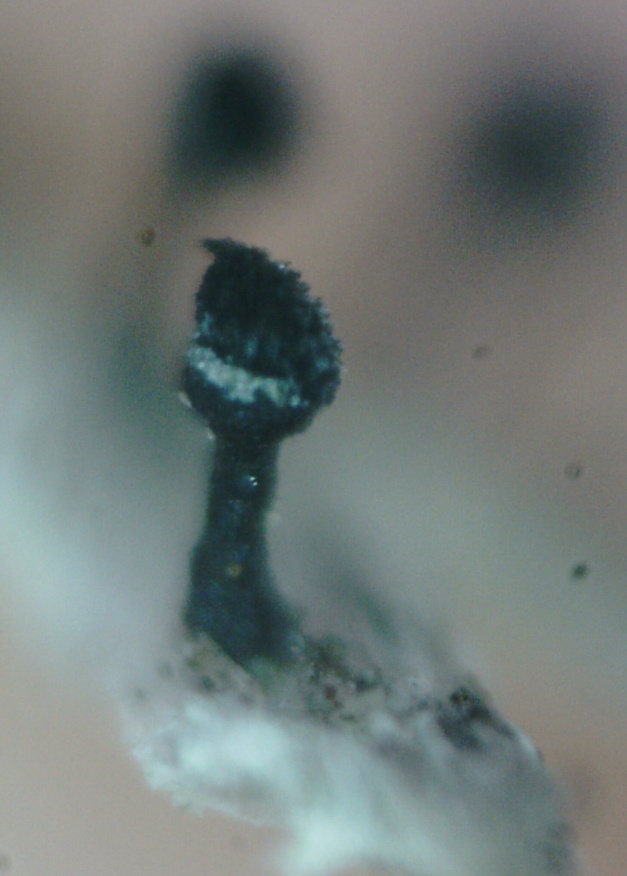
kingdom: Fungi
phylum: Ascomycota
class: Lecanoromycetes
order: Caliciales
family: Caliciaceae
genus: Calicium
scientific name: Calicium glaucellum
